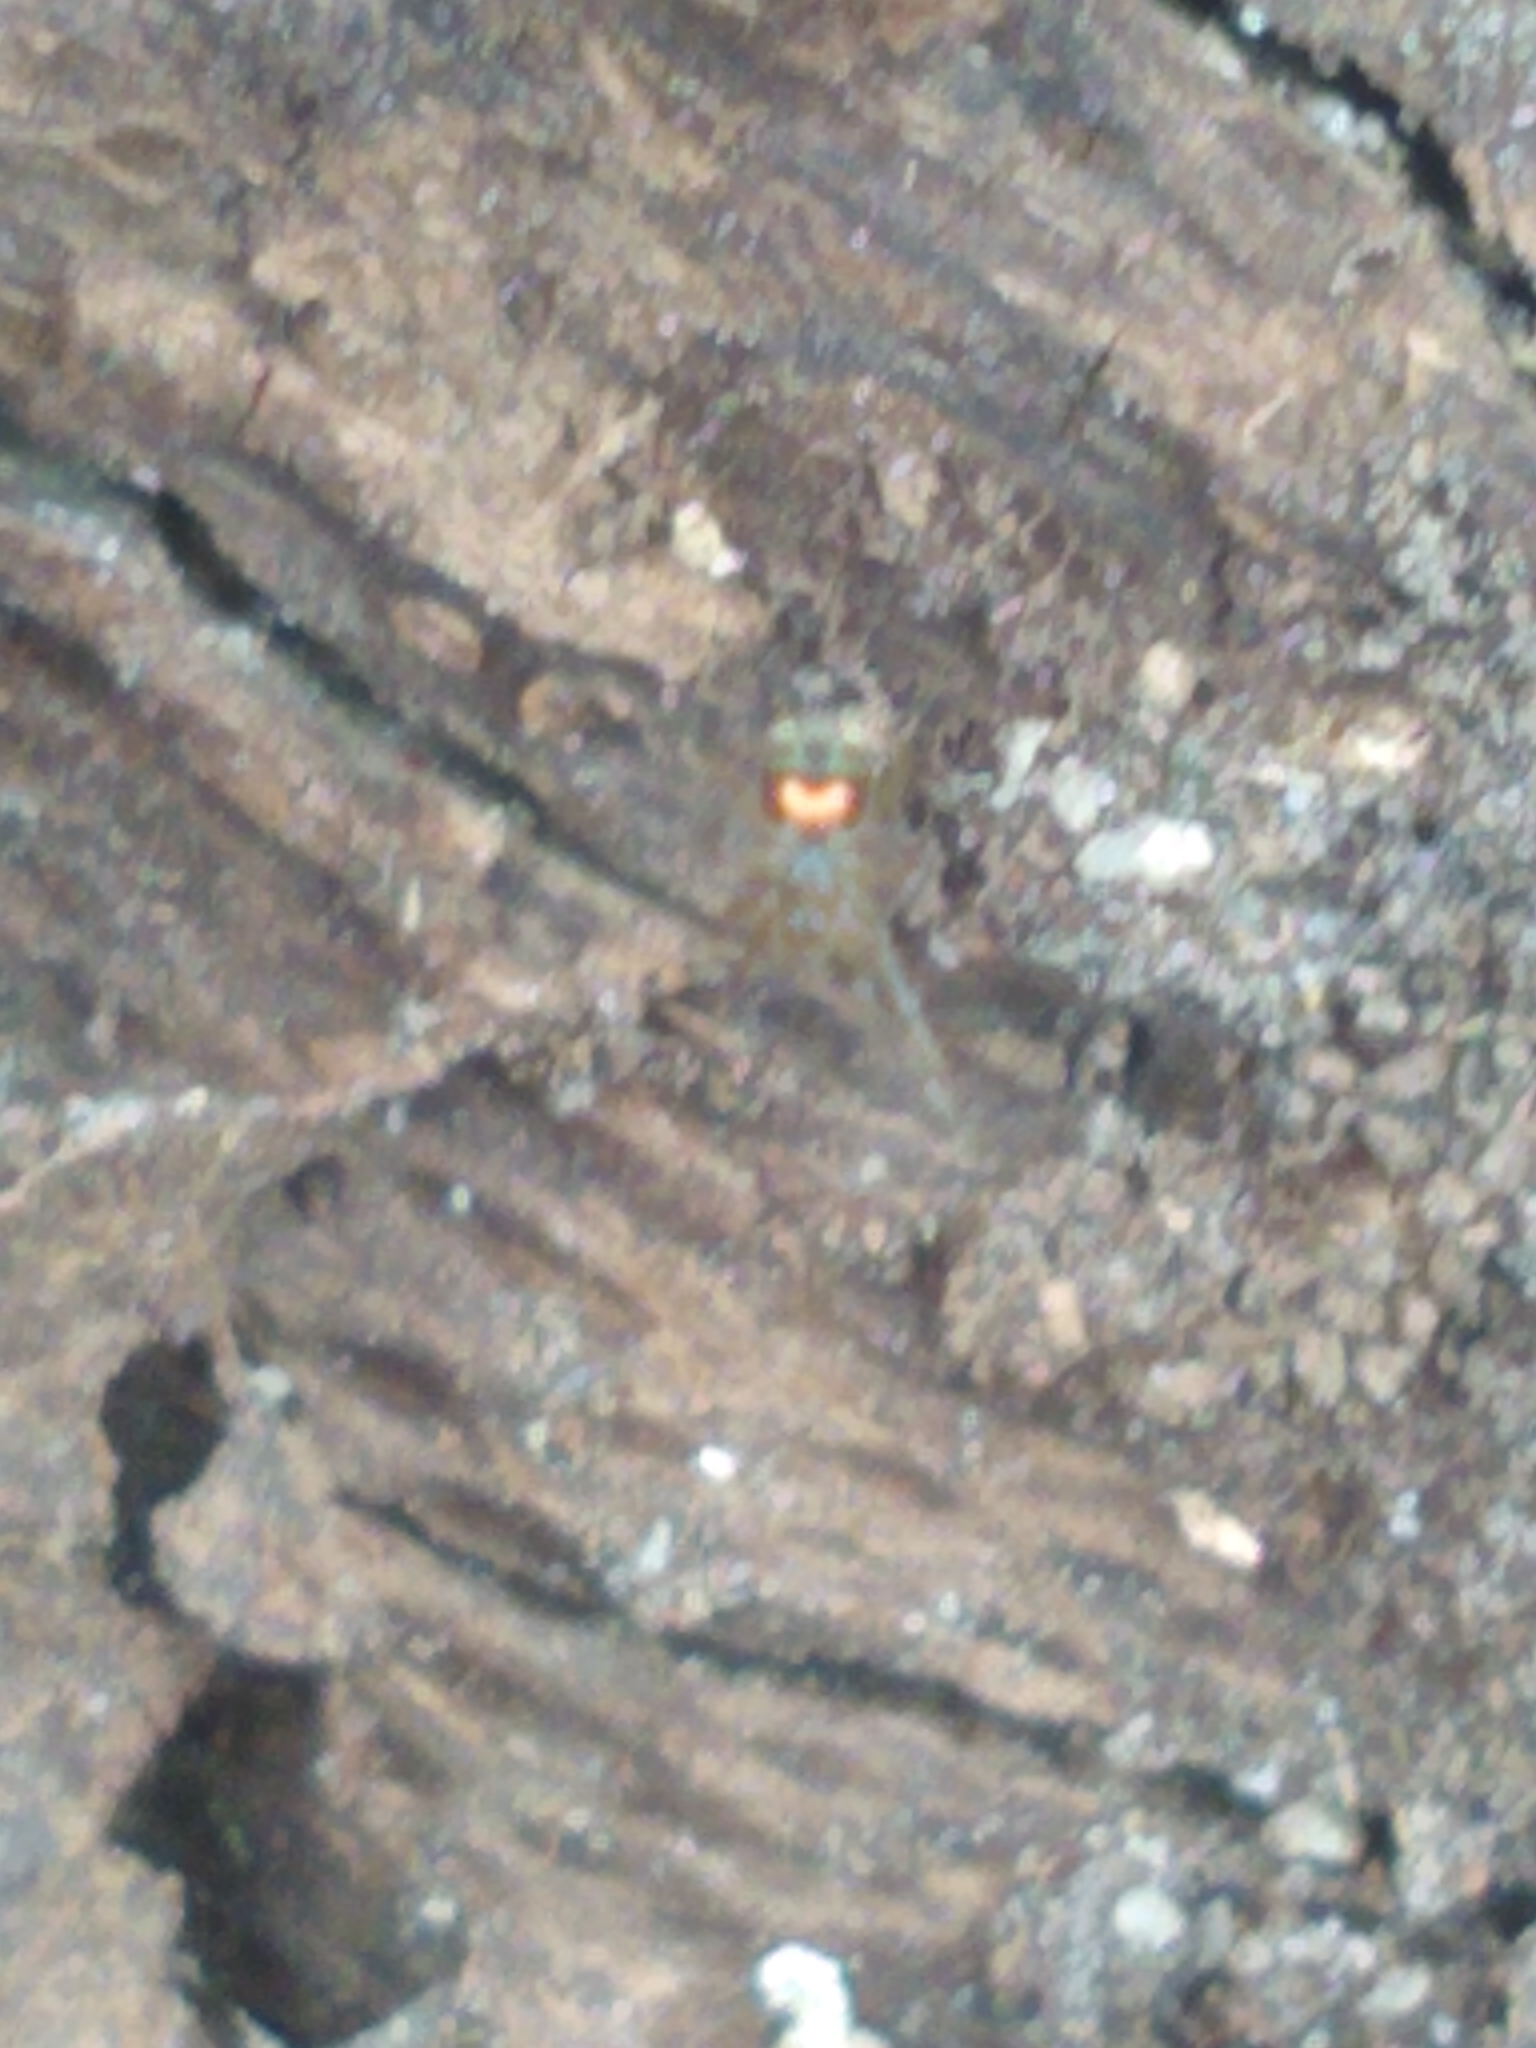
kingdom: Animalia
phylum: Arthropoda
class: Arachnida
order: Araneae
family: Tetragnathidae
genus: Leucauge
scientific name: Leucauge venusta
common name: Longjawed orb weavers
